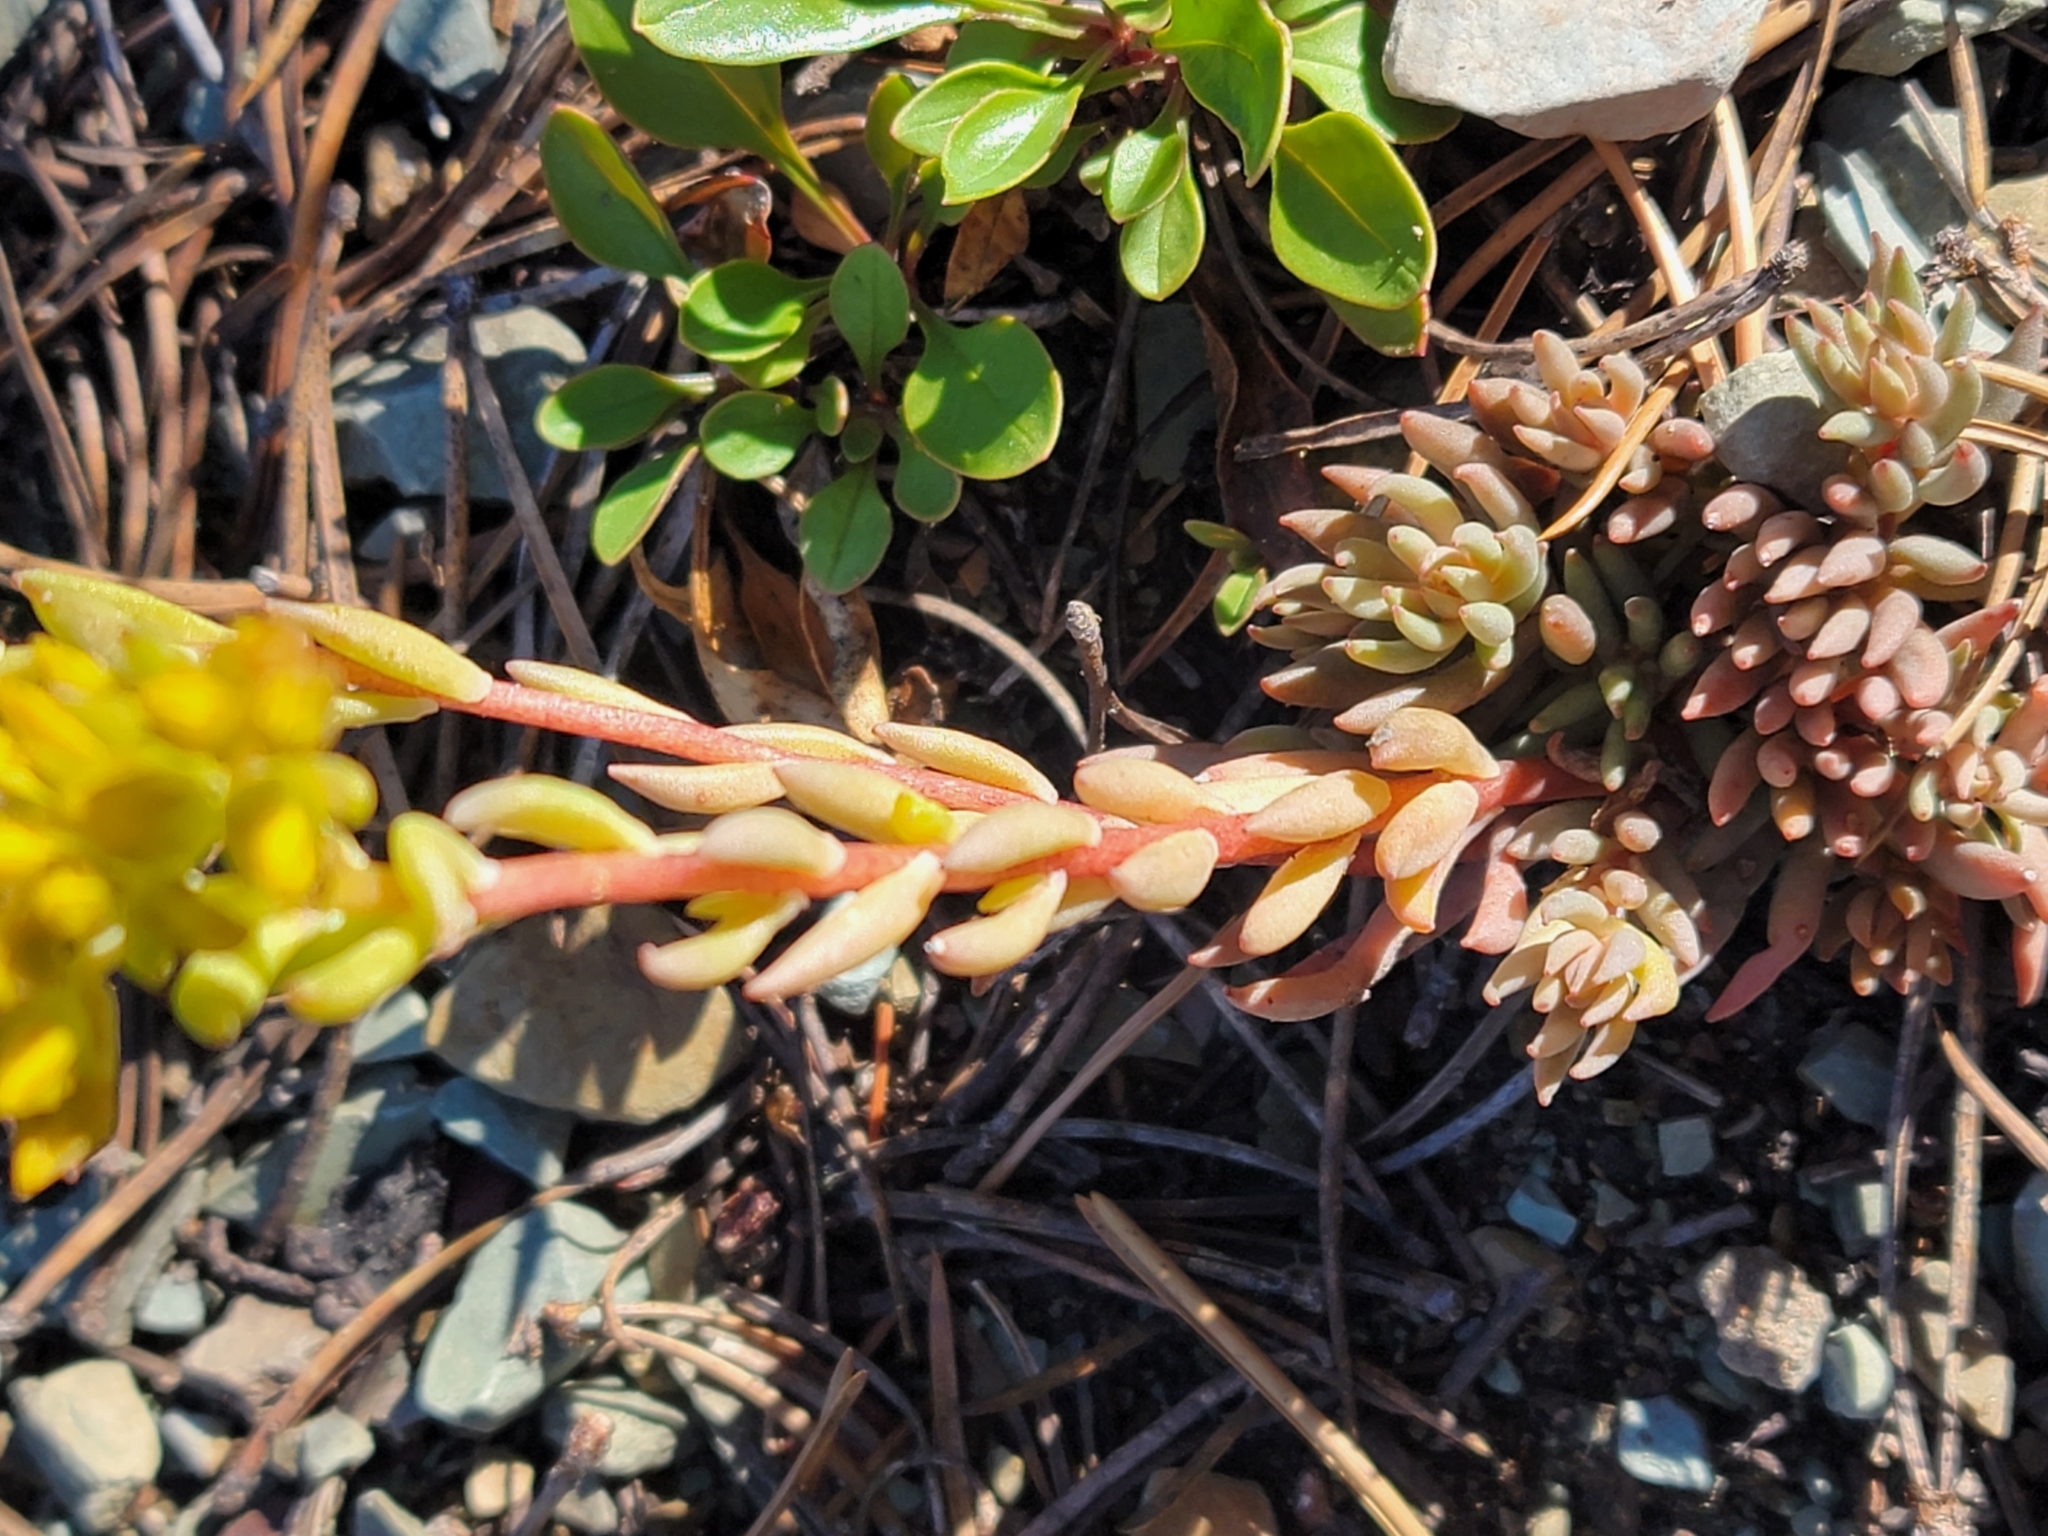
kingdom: Plantae
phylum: Tracheophyta
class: Magnoliopsida
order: Saxifragales
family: Crassulaceae
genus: Sedum
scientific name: Sedum lanceolatum
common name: Common stonecrop
